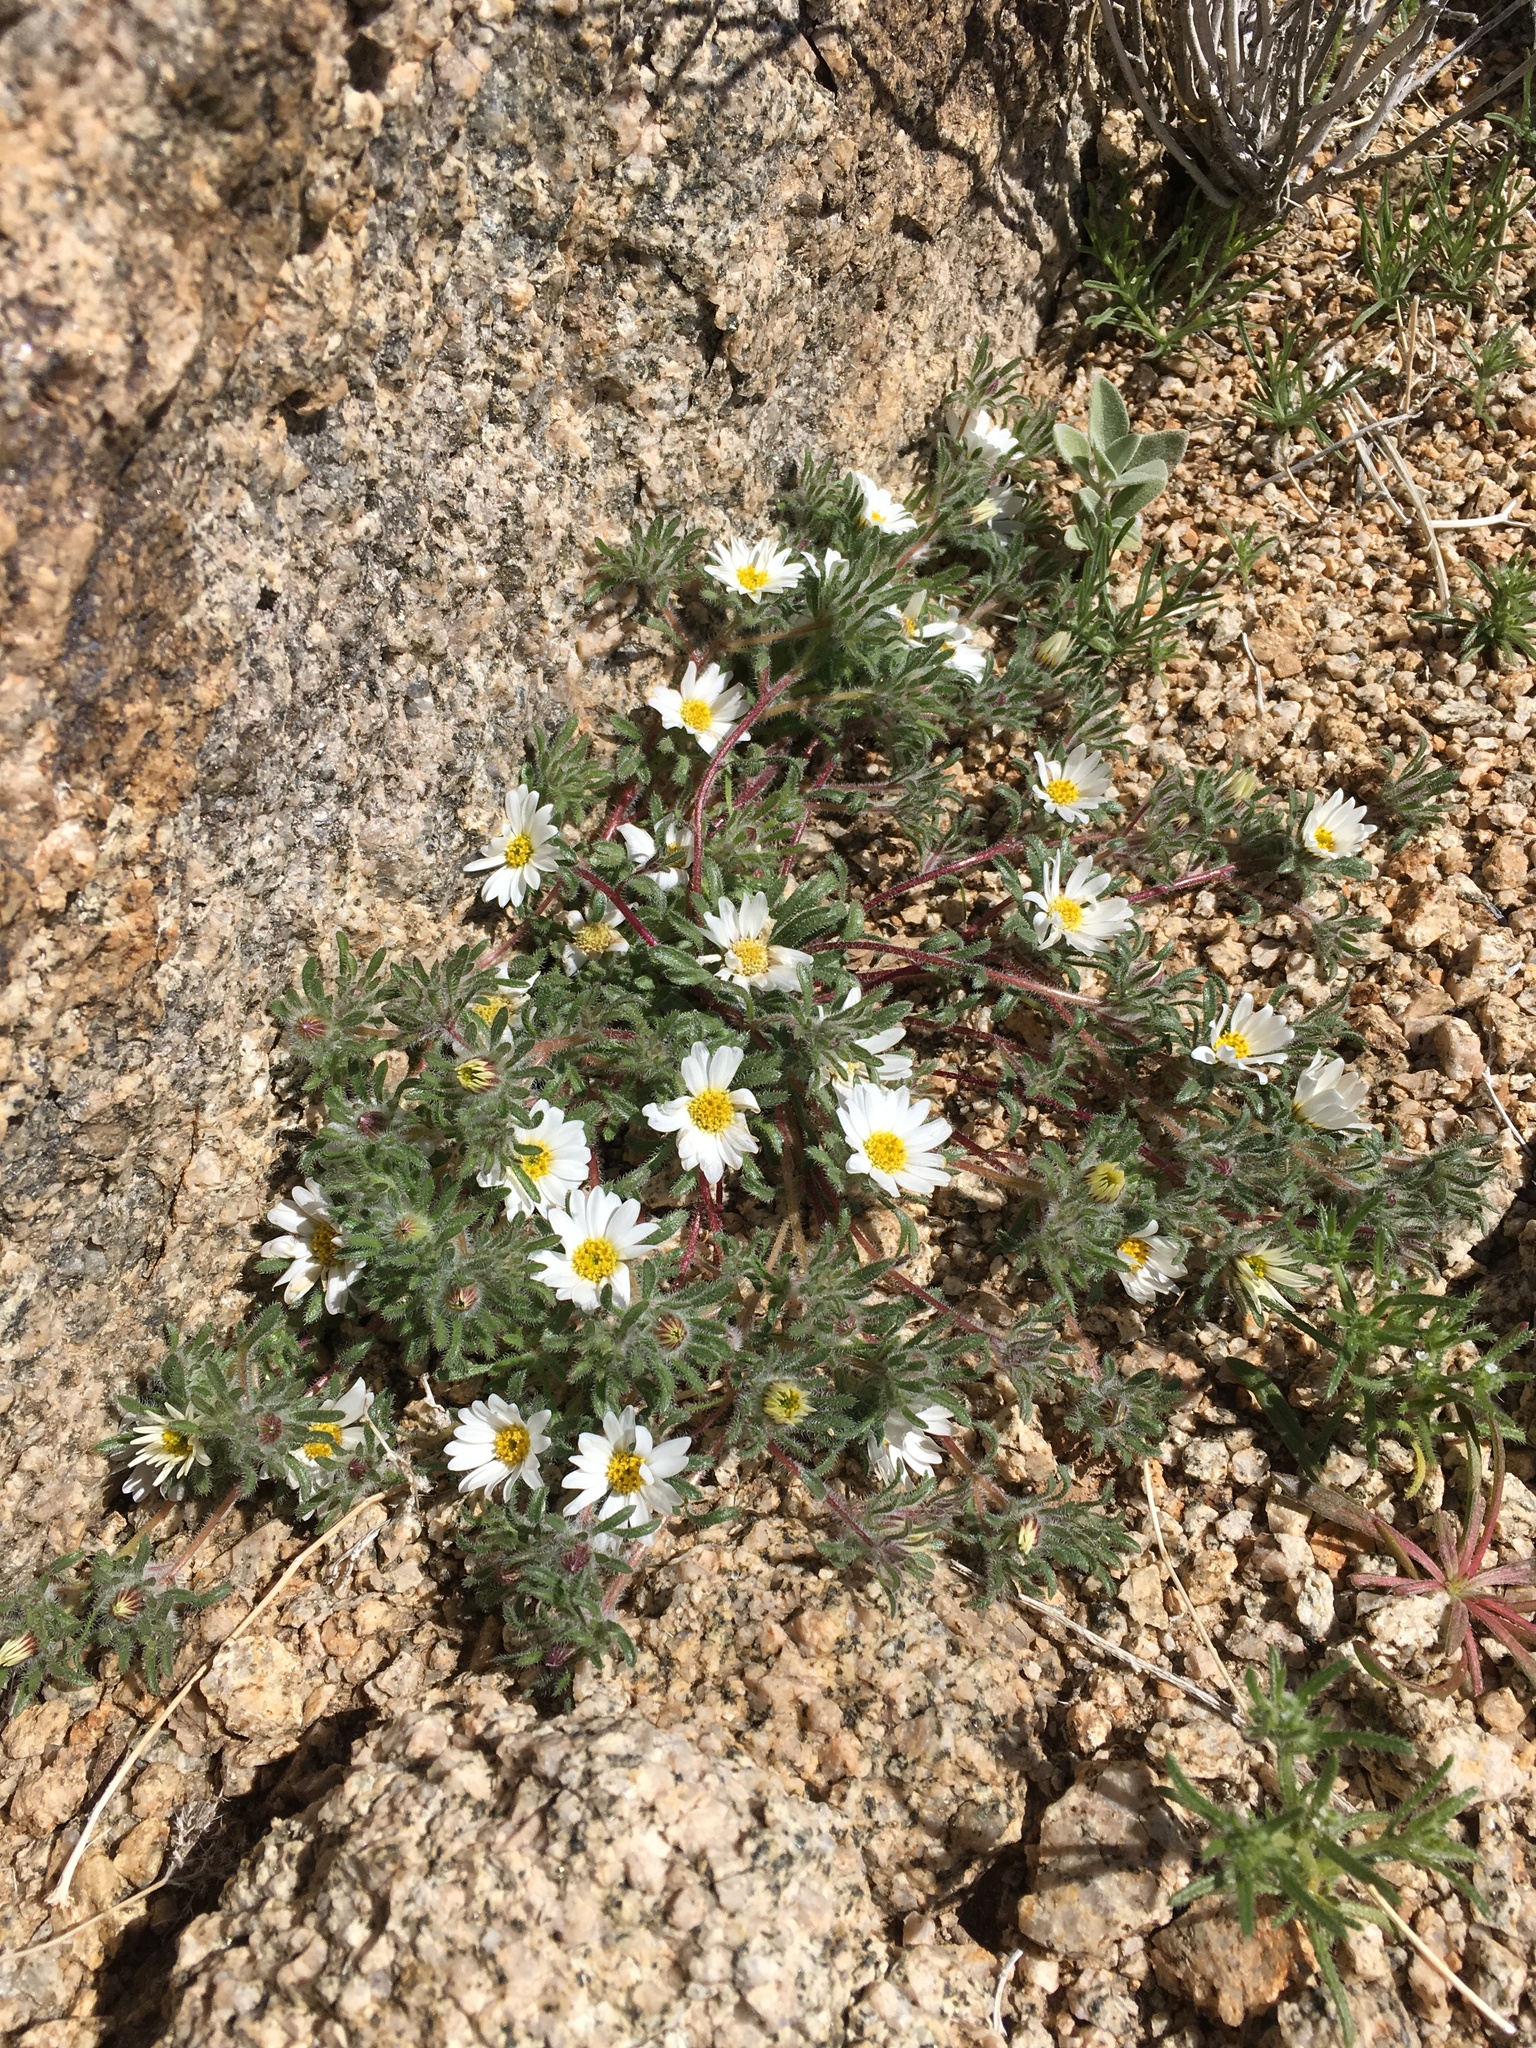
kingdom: Plantae
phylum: Tracheophyta
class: Magnoliopsida
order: Asterales
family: Asteraceae
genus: Monoptilon
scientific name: Monoptilon bellioides
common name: Bristly desertstar
